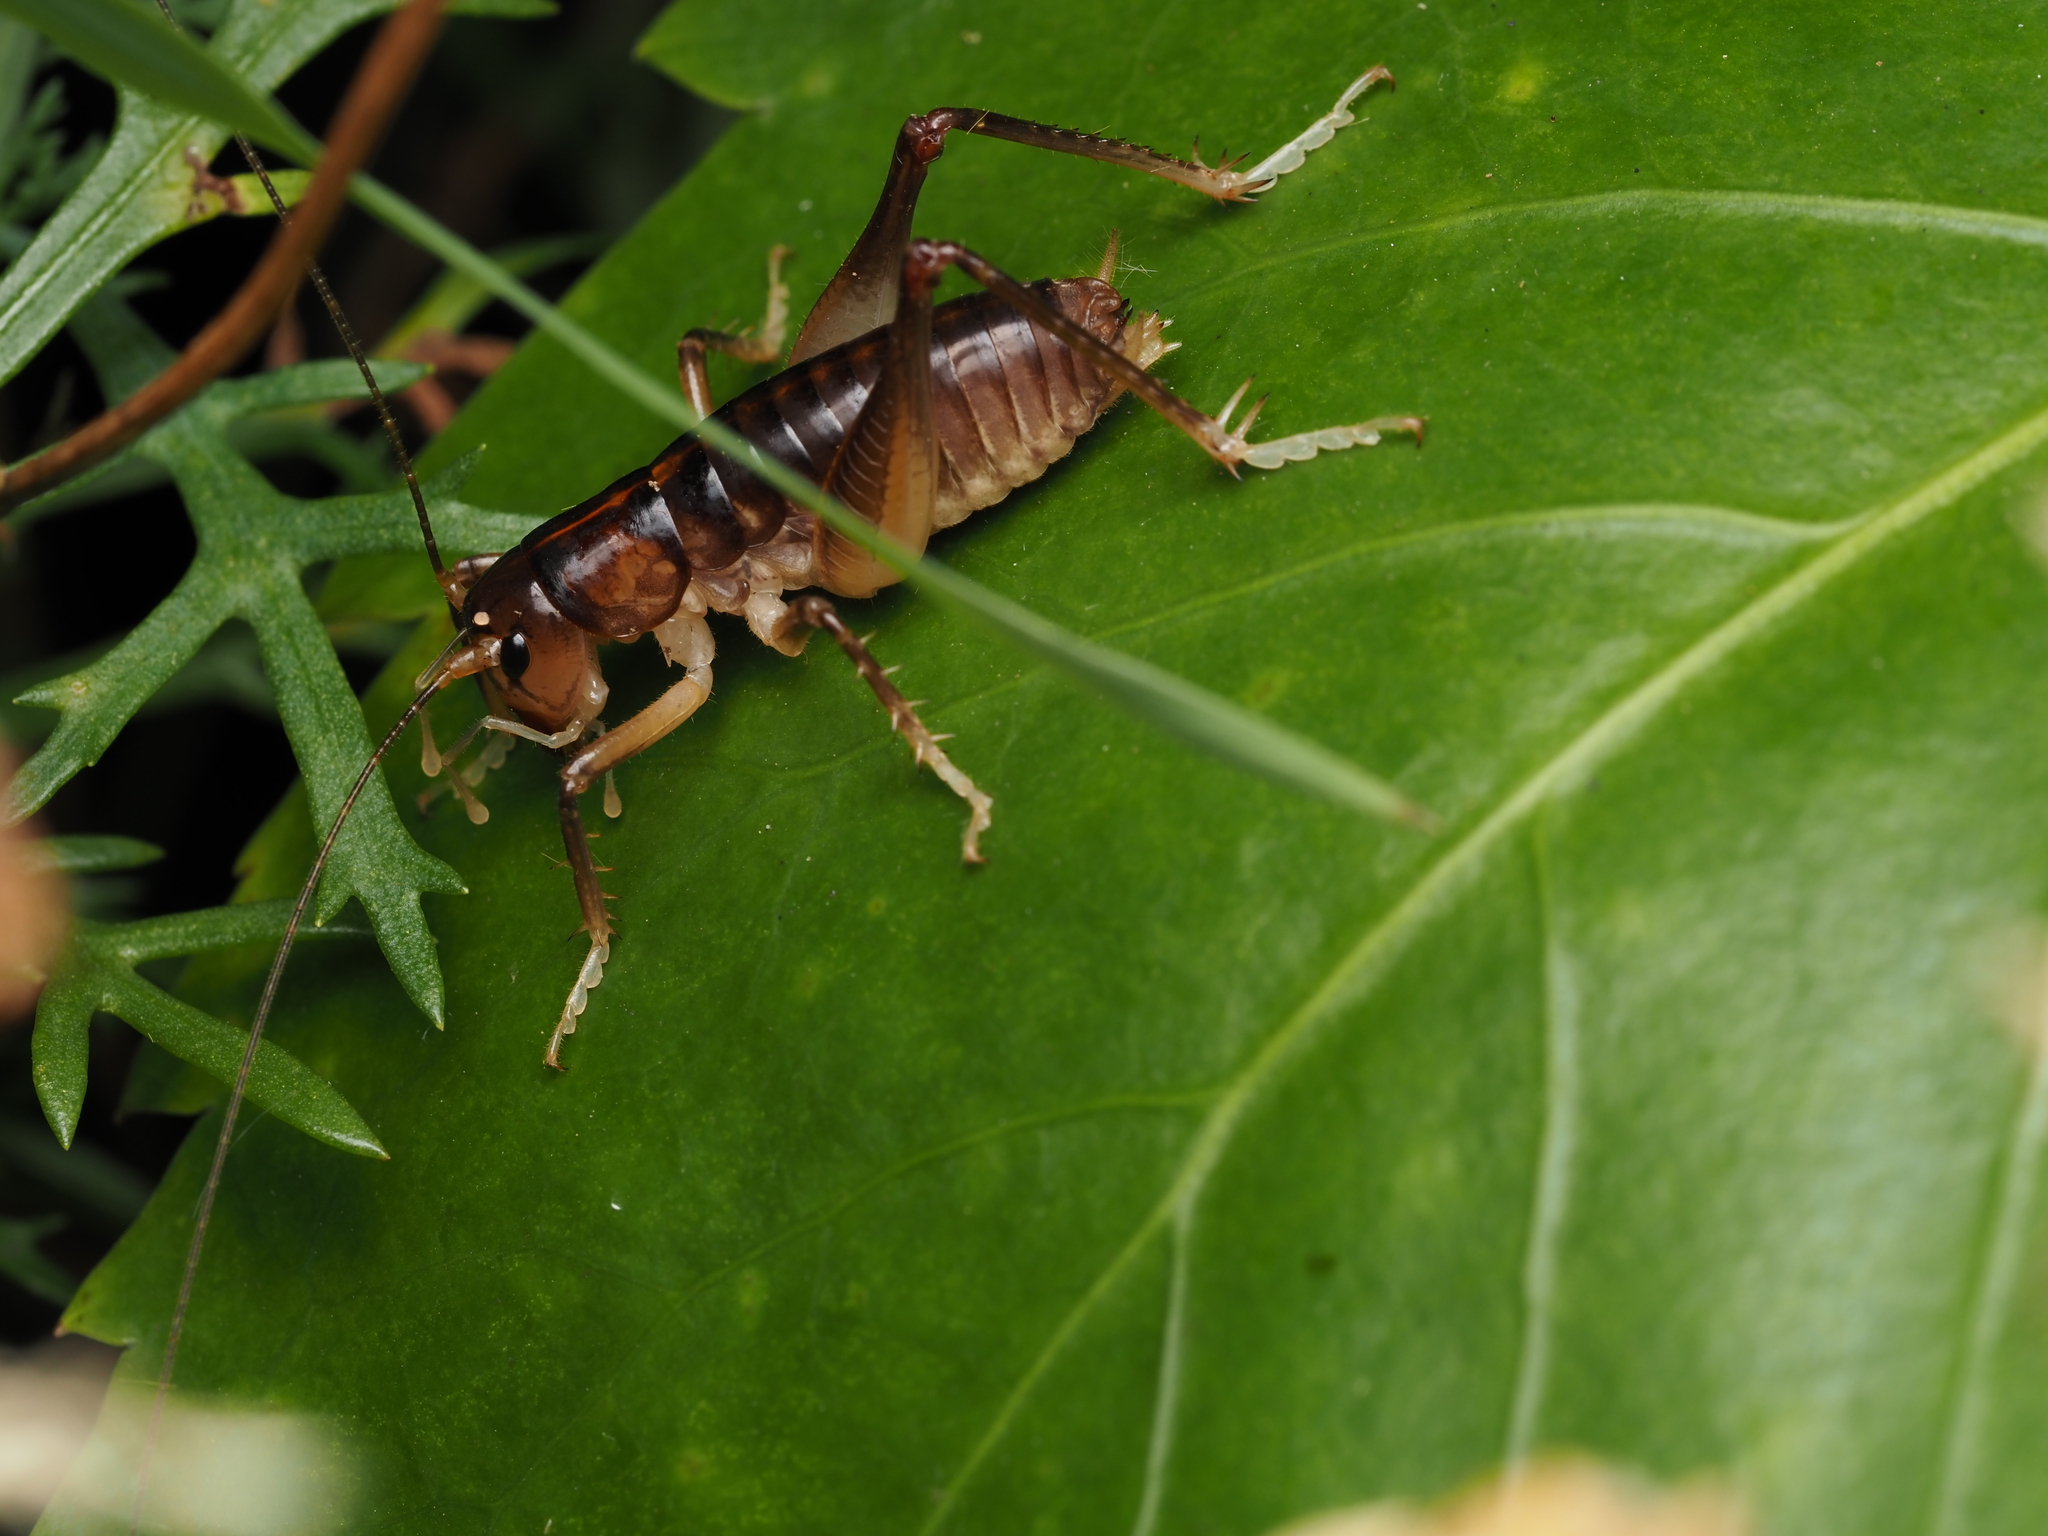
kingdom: Animalia
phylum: Arthropoda
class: Insecta
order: Orthoptera
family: Anostostomatidae
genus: Hemiandrus
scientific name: Hemiandrus pallitarsis
